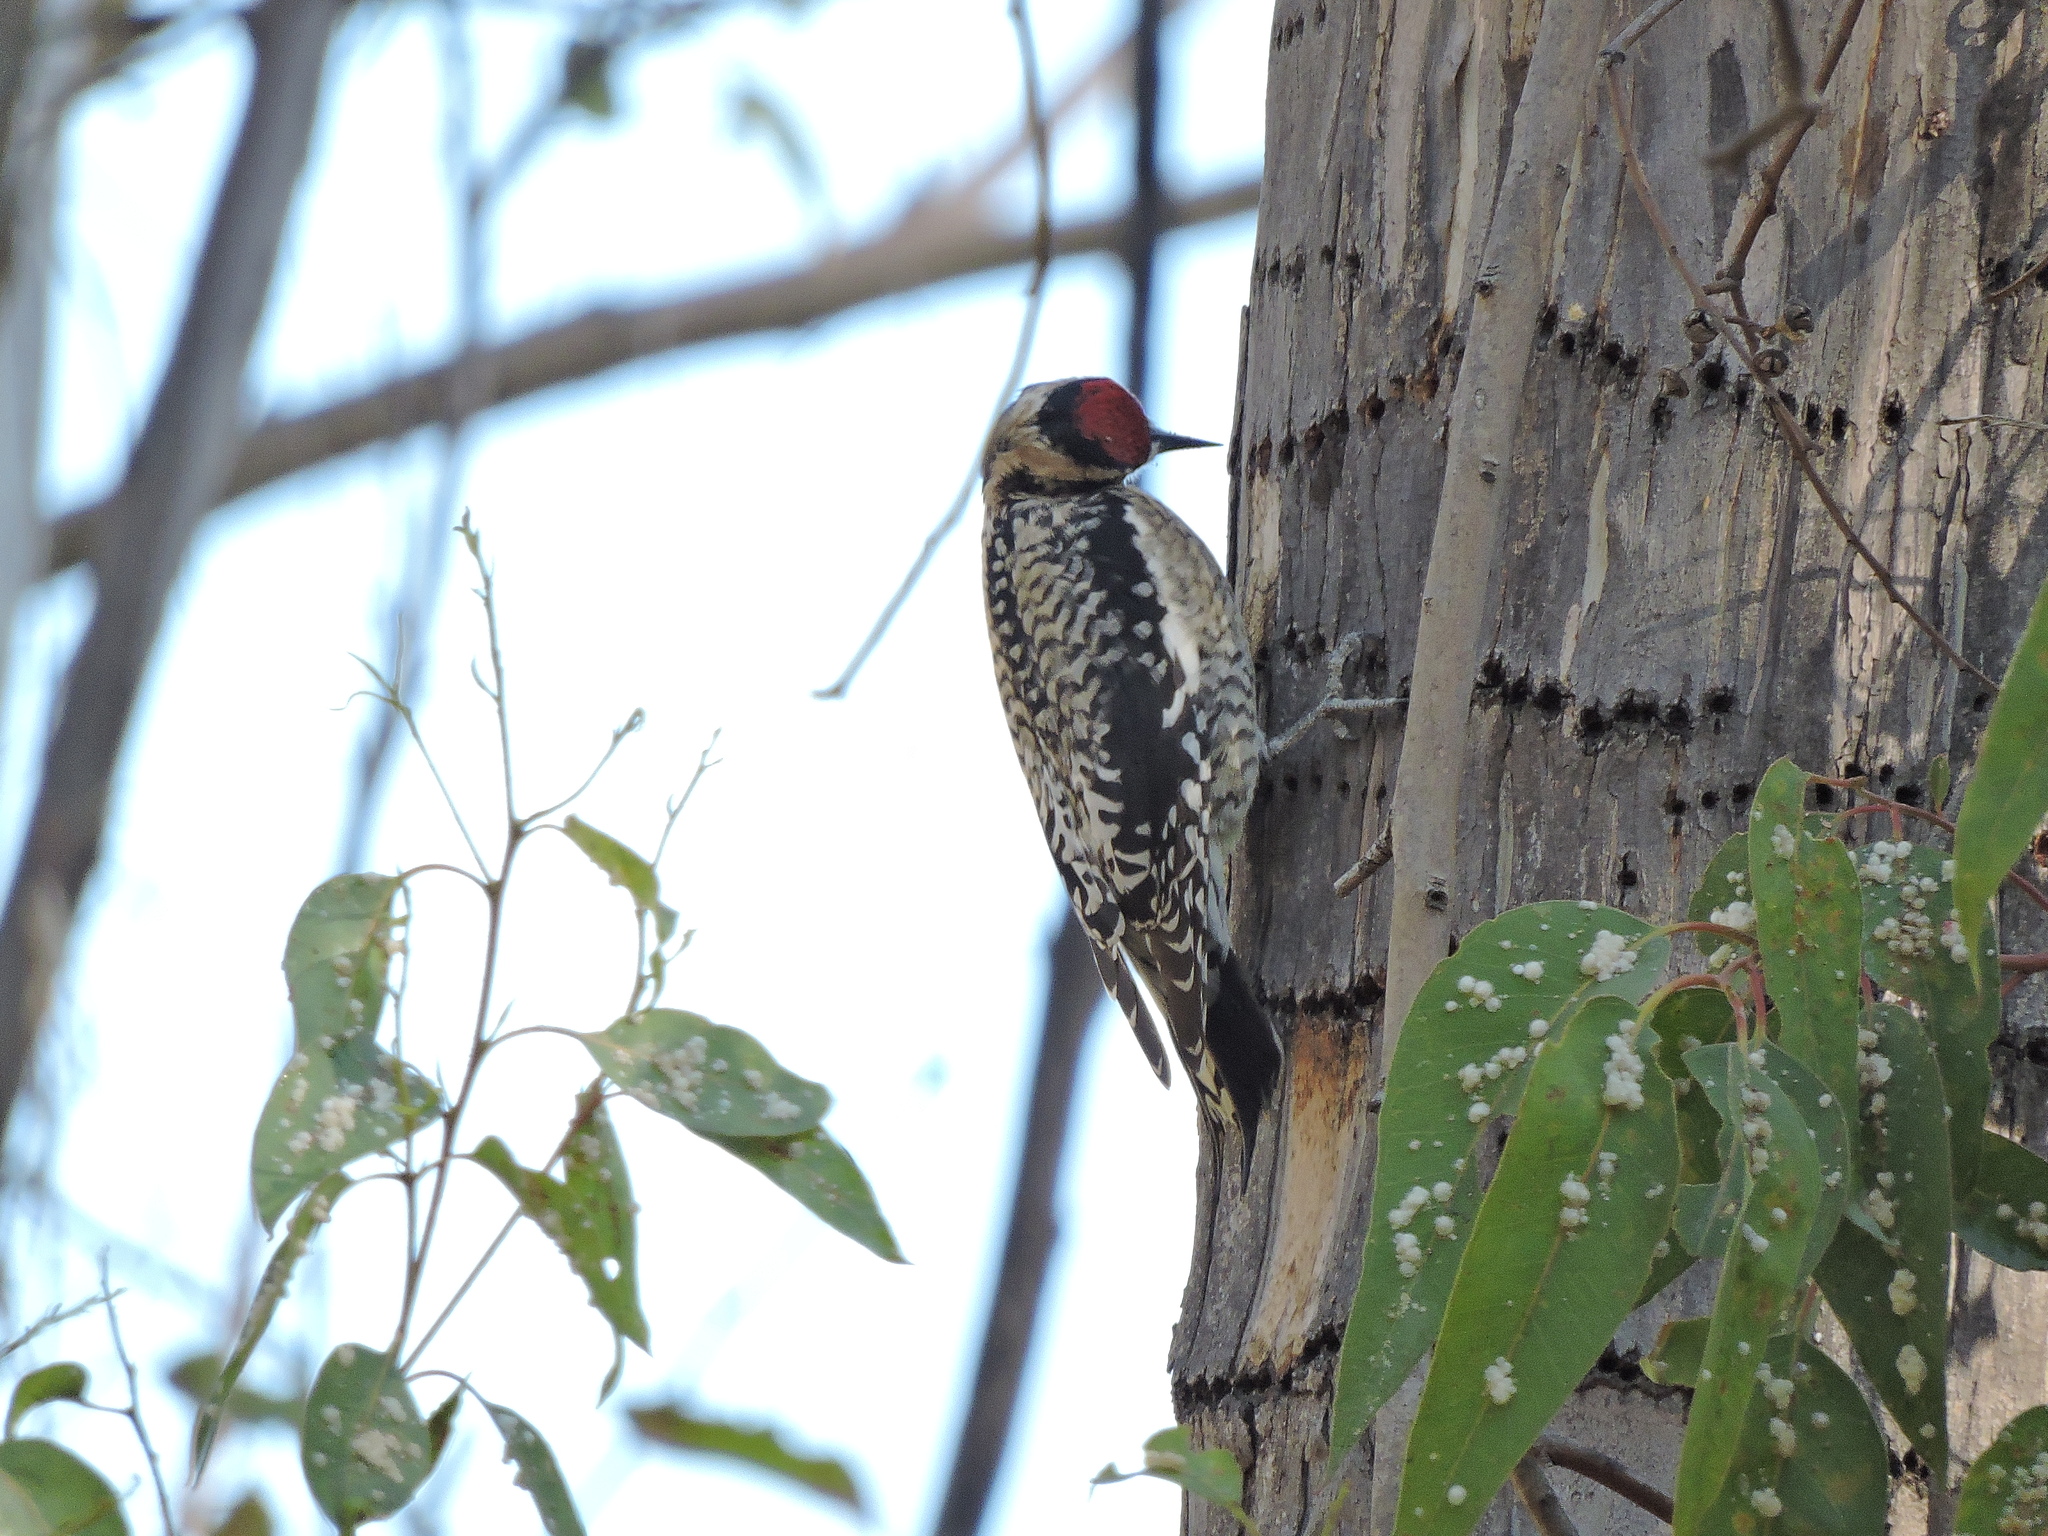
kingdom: Animalia
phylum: Chordata
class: Aves
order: Piciformes
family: Picidae
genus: Sphyrapicus
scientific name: Sphyrapicus varius
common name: Yellow-bellied sapsucker
